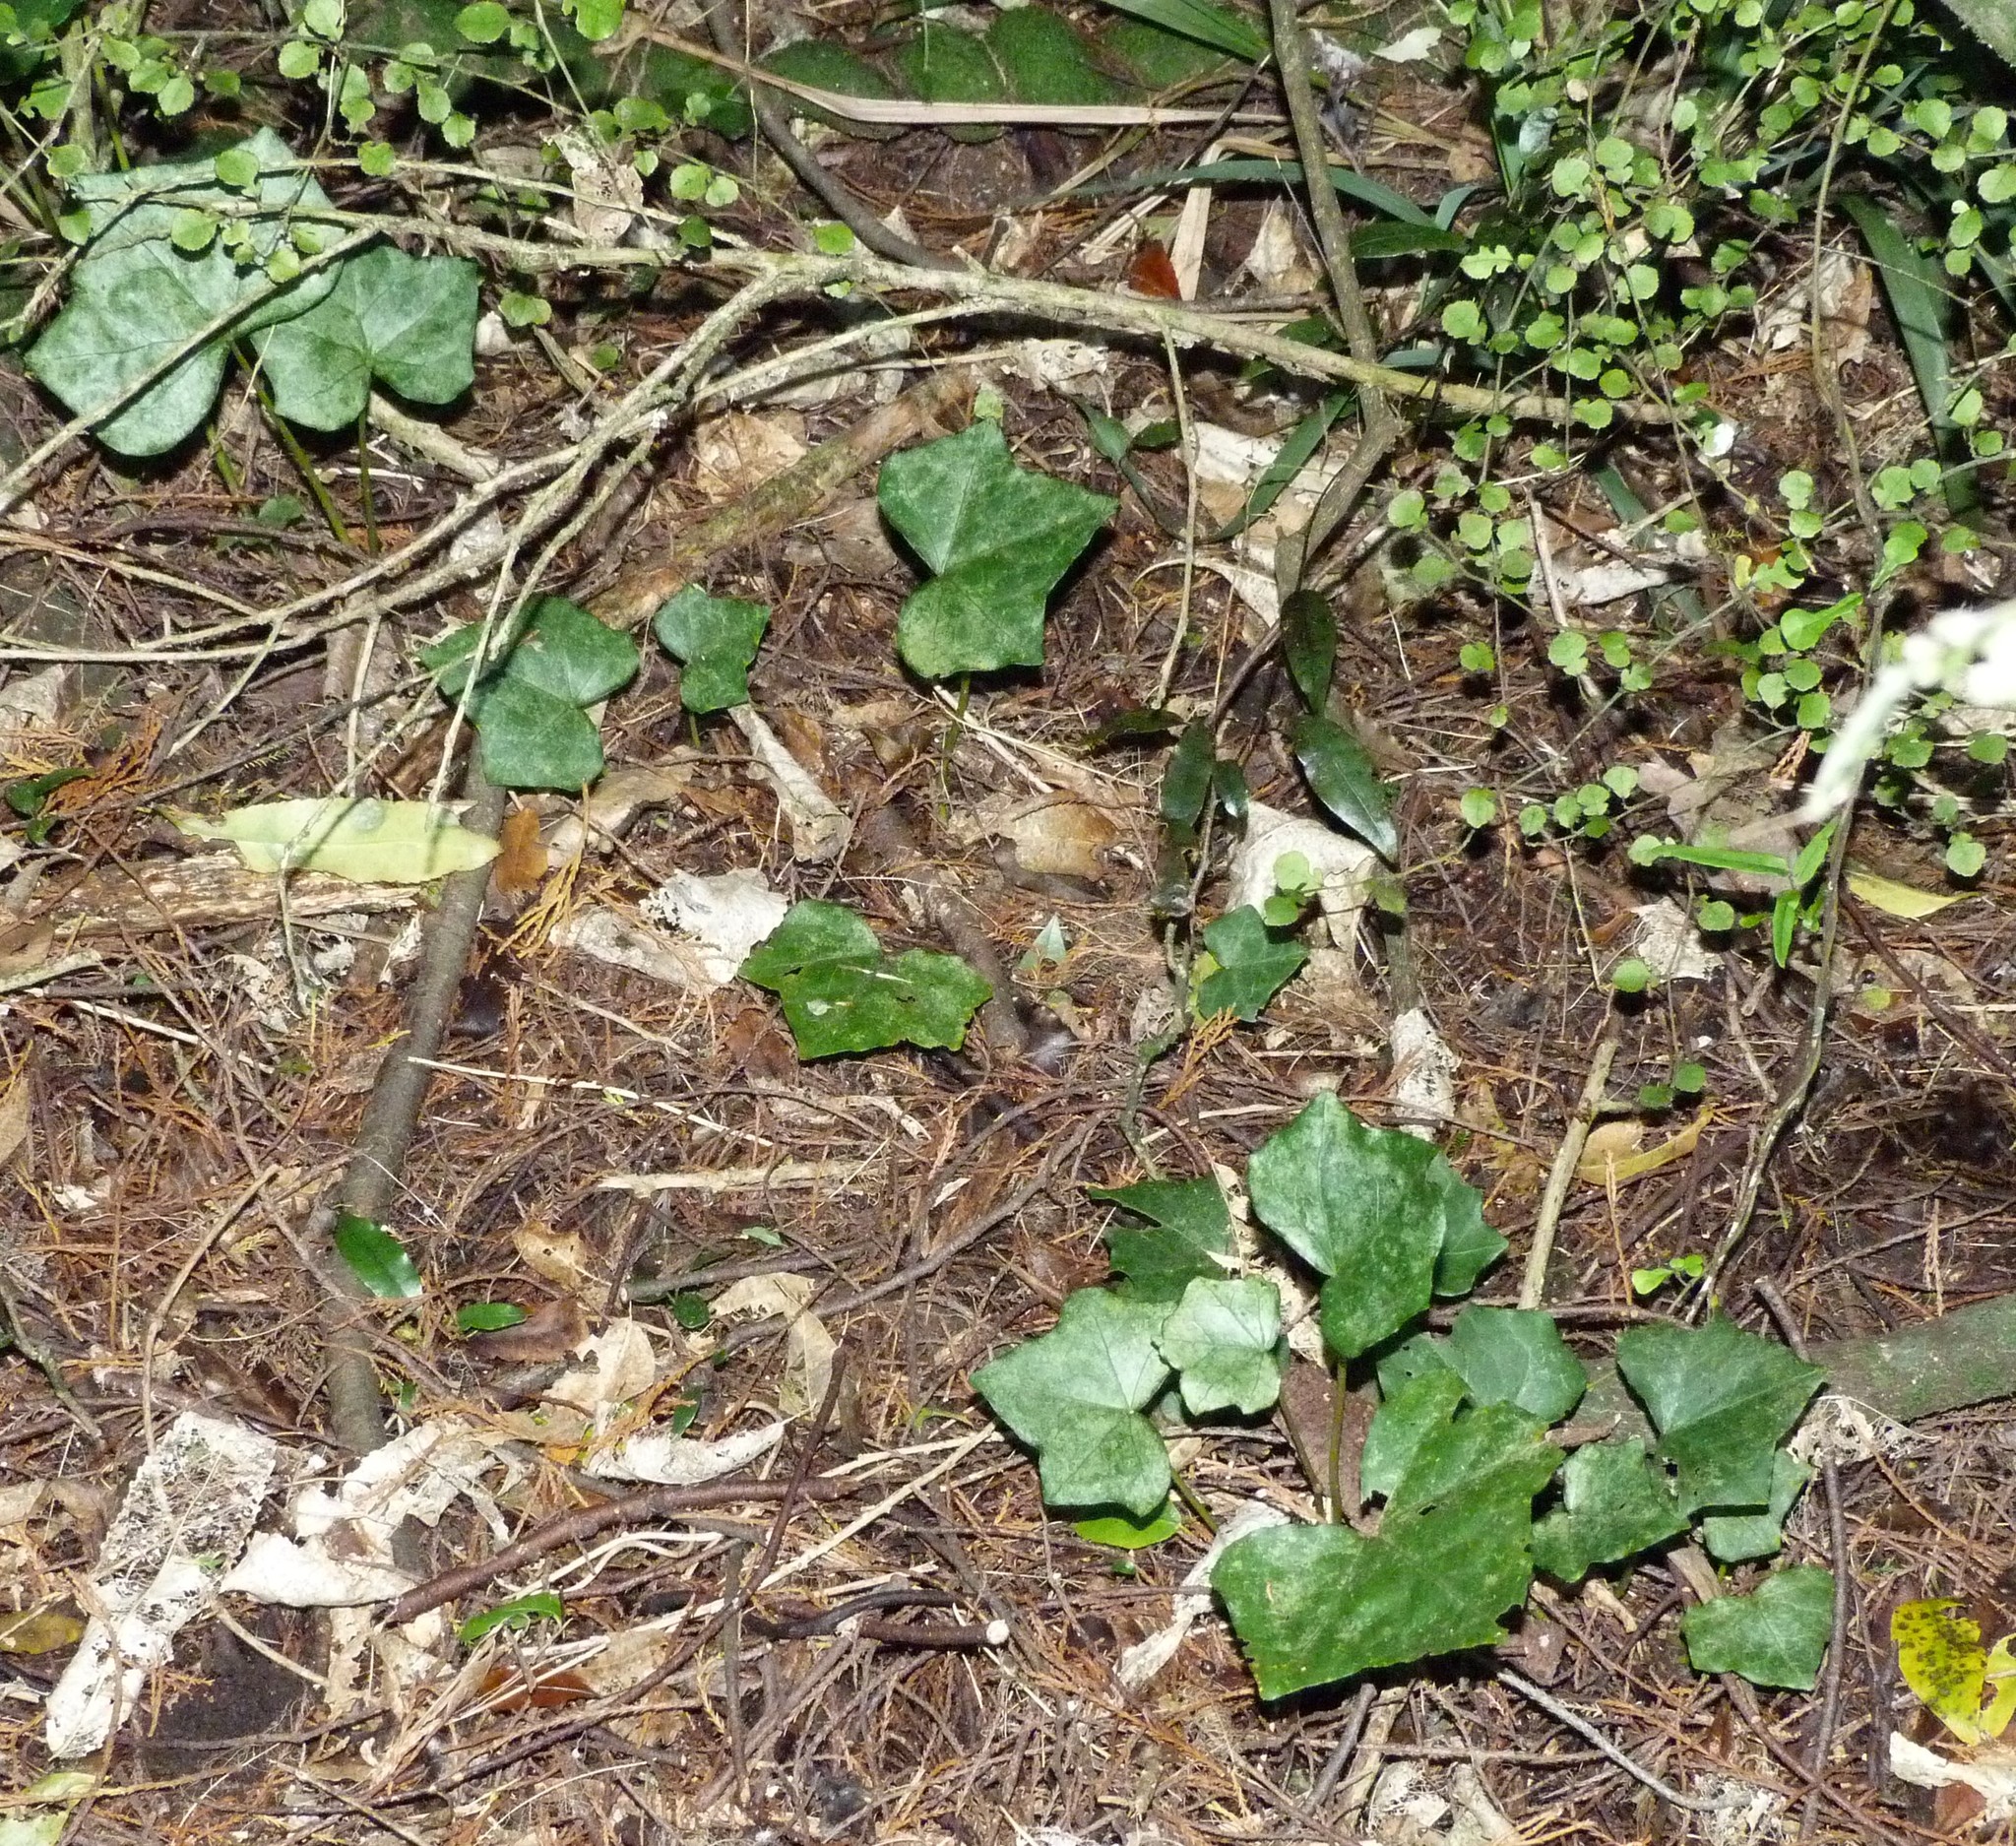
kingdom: Plantae
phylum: Tracheophyta
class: Magnoliopsida
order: Apiales
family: Araliaceae
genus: Hedera
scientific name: Hedera helix
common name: Ivy
